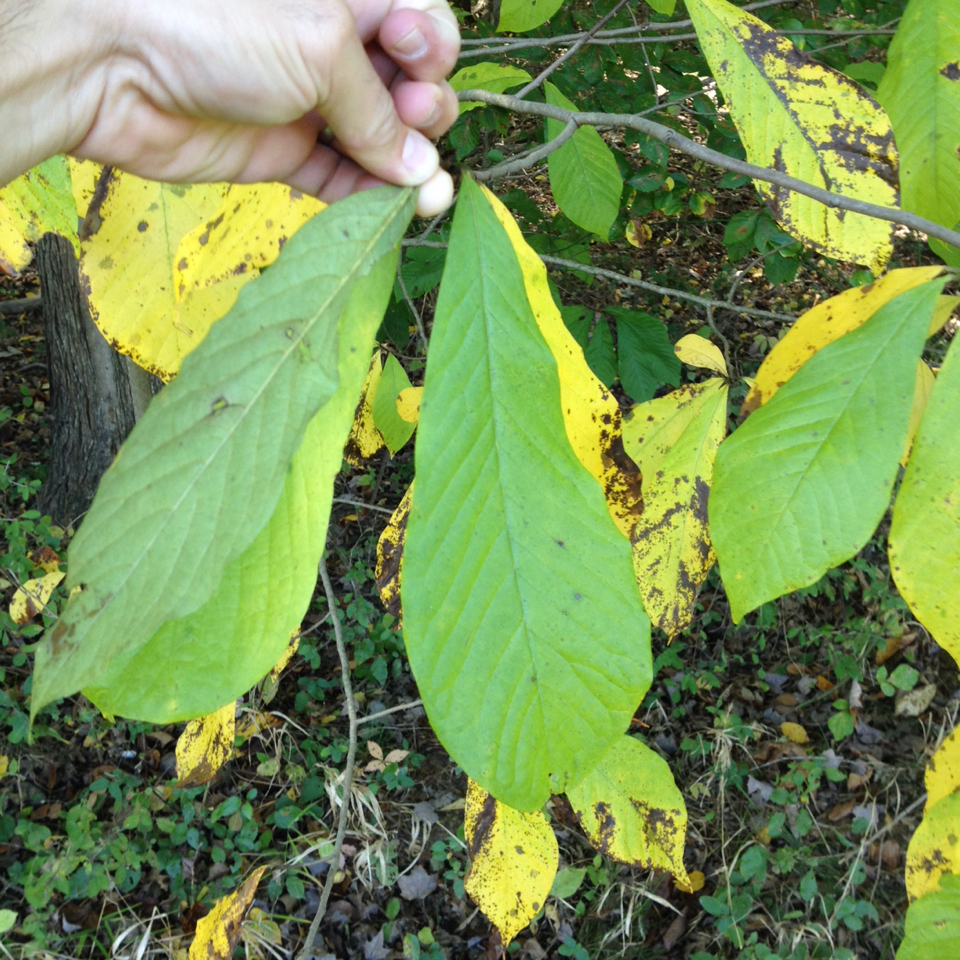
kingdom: Plantae
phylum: Tracheophyta
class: Magnoliopsida
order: Magnoliales
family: Annonaceae
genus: Asimina
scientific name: Asimina triloba
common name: Dog-banana
